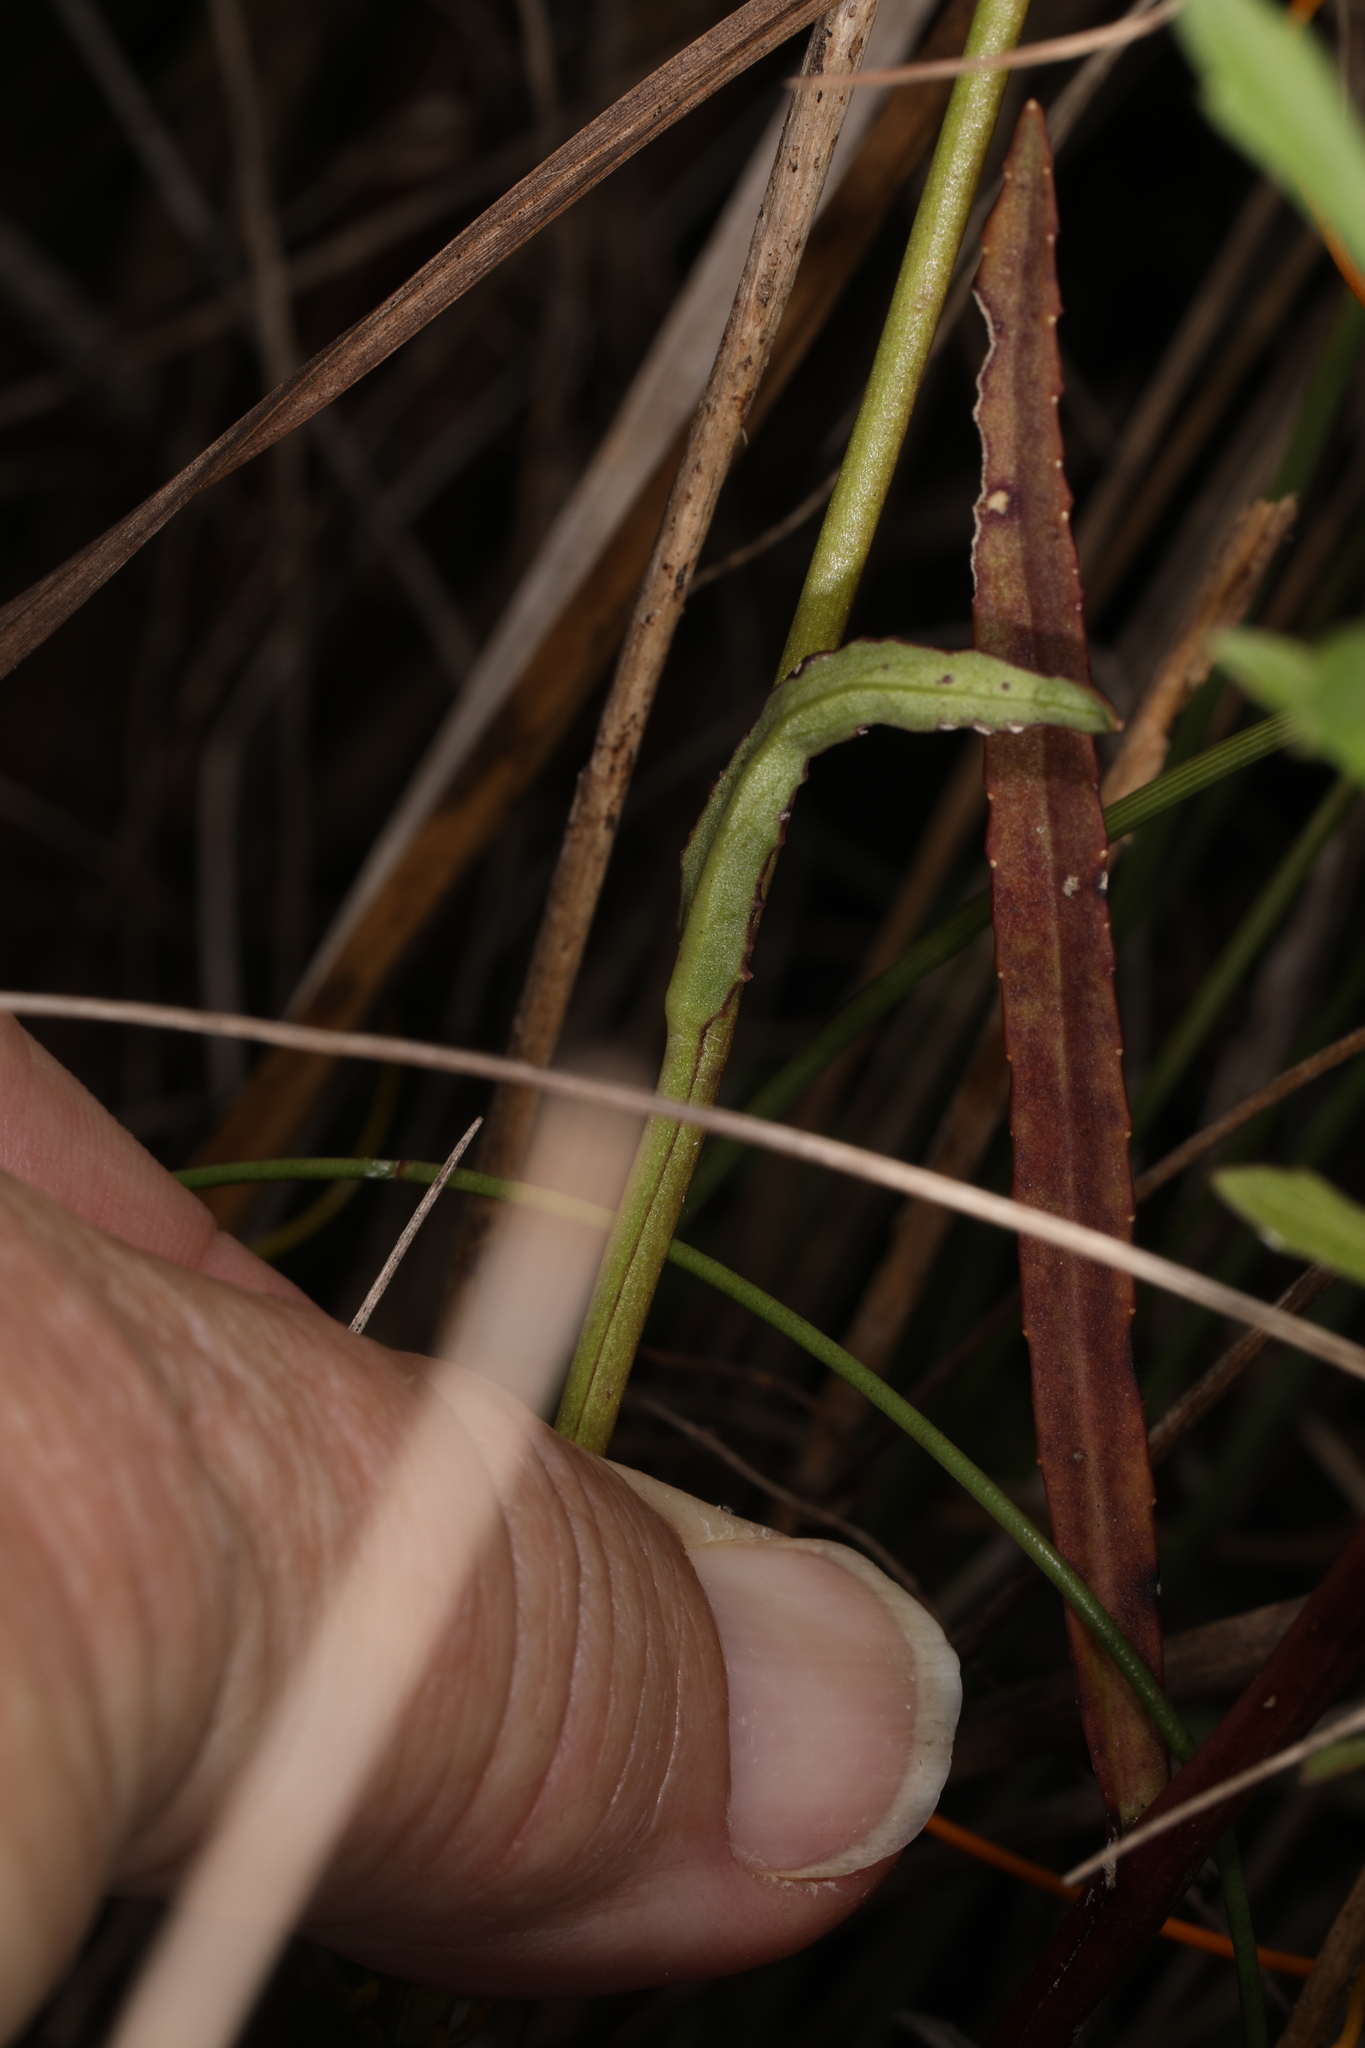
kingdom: Plantae
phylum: Tracheophyta
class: Magnoliopsida
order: Asterales
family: Campanulaceae
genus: Lobelia
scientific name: Lobelia glandulosa
